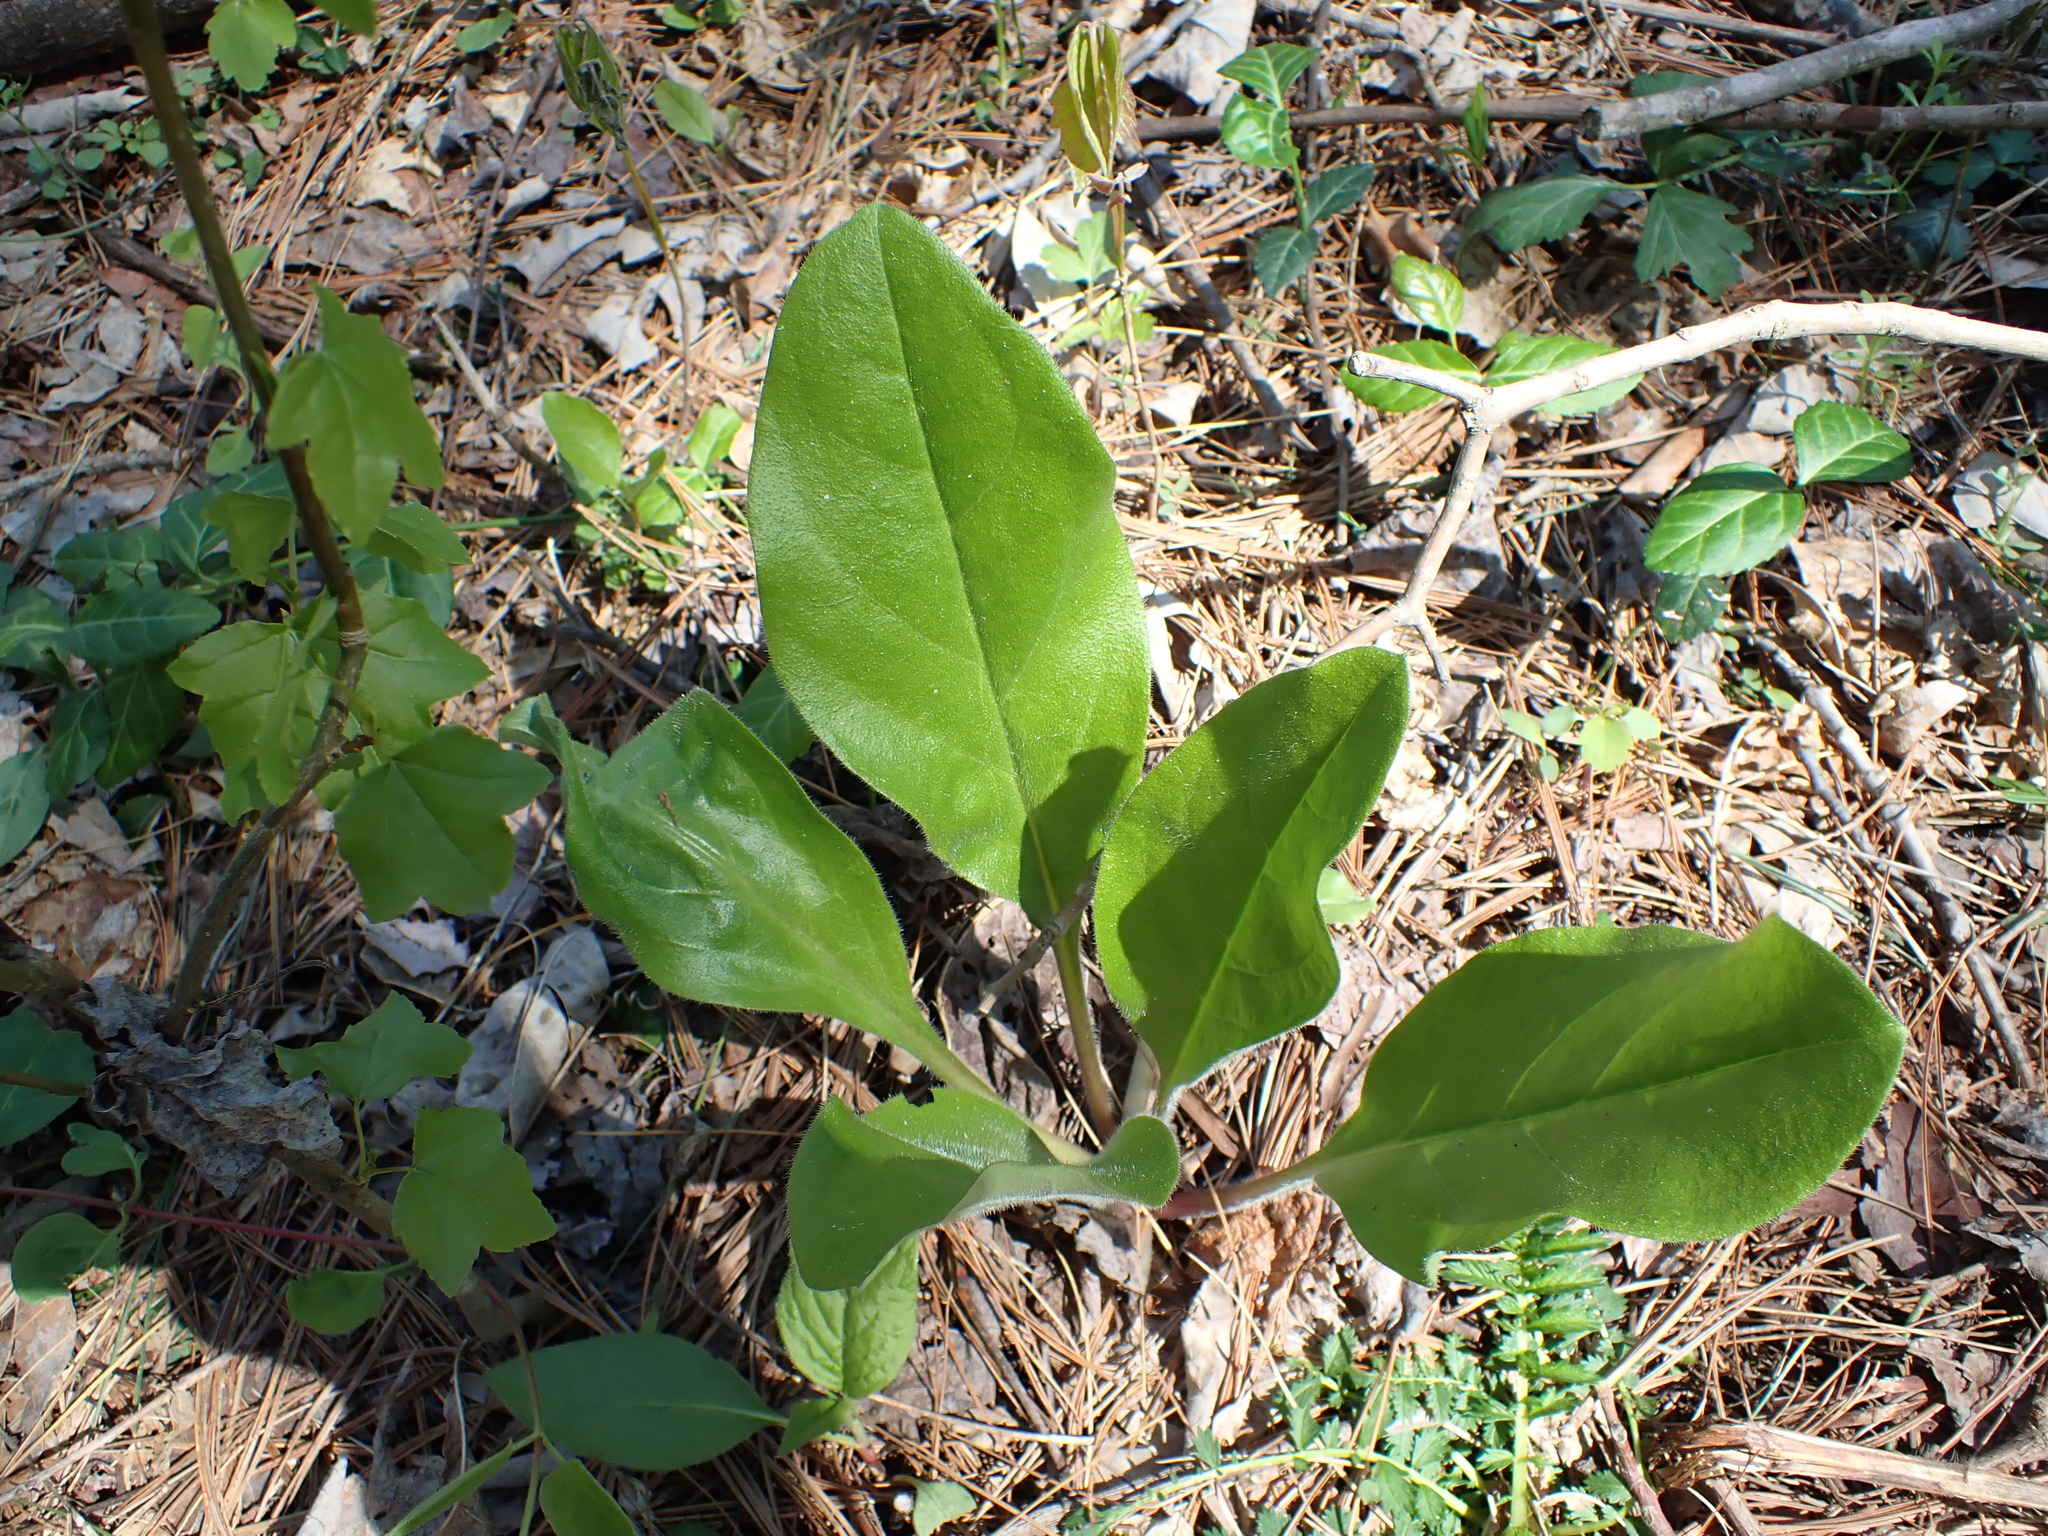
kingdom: Plantae
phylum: Tracheophyta
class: Magnoliopsida
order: Boraginales
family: Boraginaceae
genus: Andersonglossum
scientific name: Andersonglossum virginianum
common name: Wild comfrey
